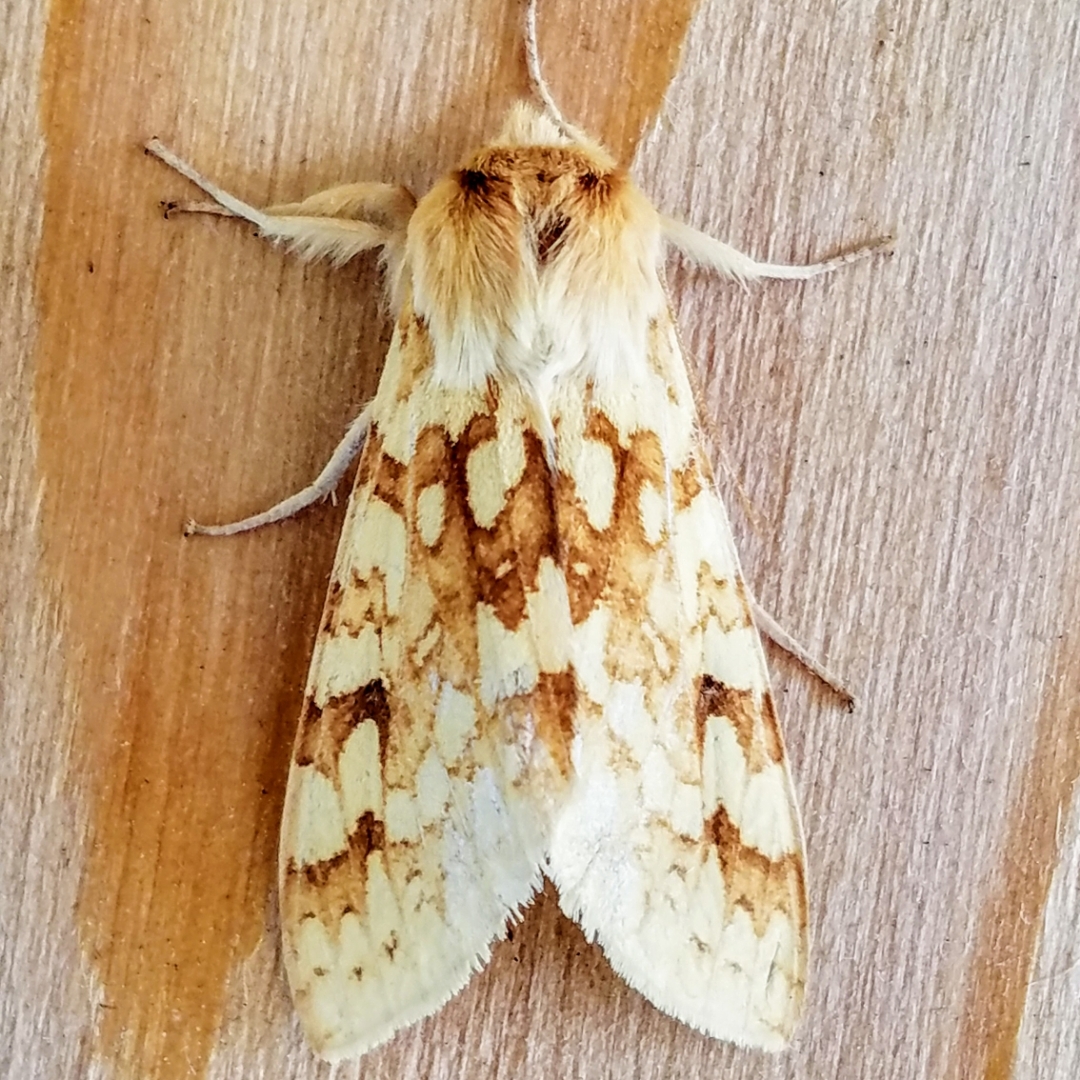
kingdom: Animalia
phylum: Arthropoda
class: Insecta
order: Lepidoptera
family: Erebidae
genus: Lophocampa
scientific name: Lophocampa maculata
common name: Spotted tussock moth
